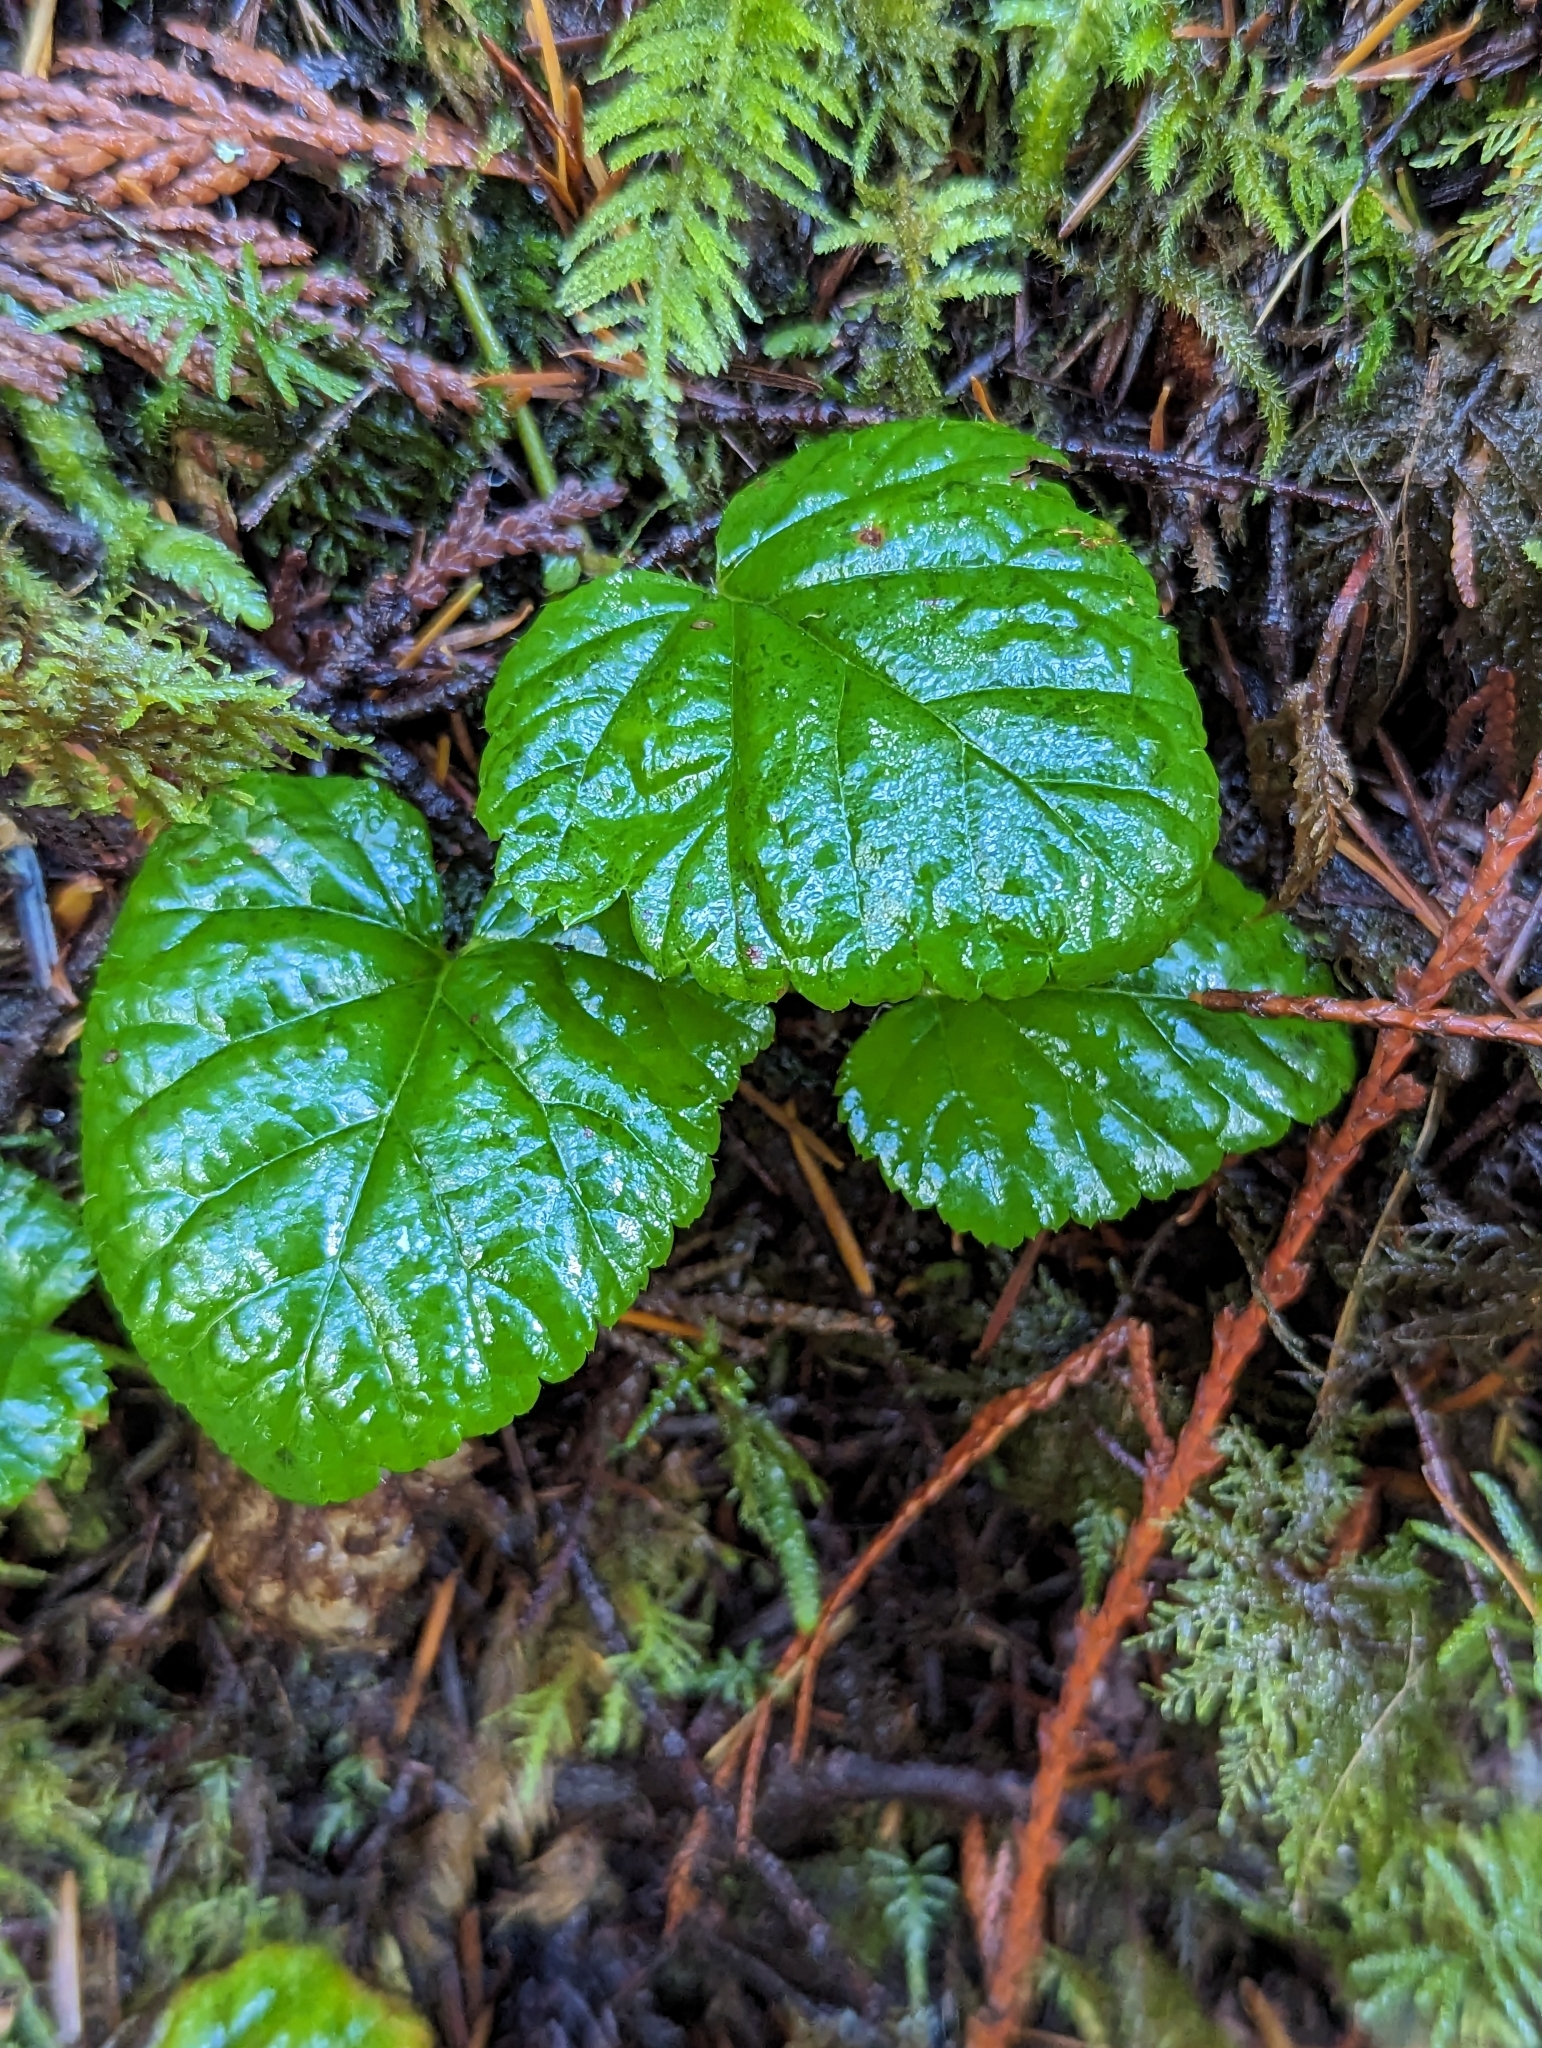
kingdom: Plantae
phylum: Tracheophyta
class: Magnoliopsida
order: Rosales
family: Rosaceae
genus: Rubus
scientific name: Rubus nivalis
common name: Dwarf snow bramble
